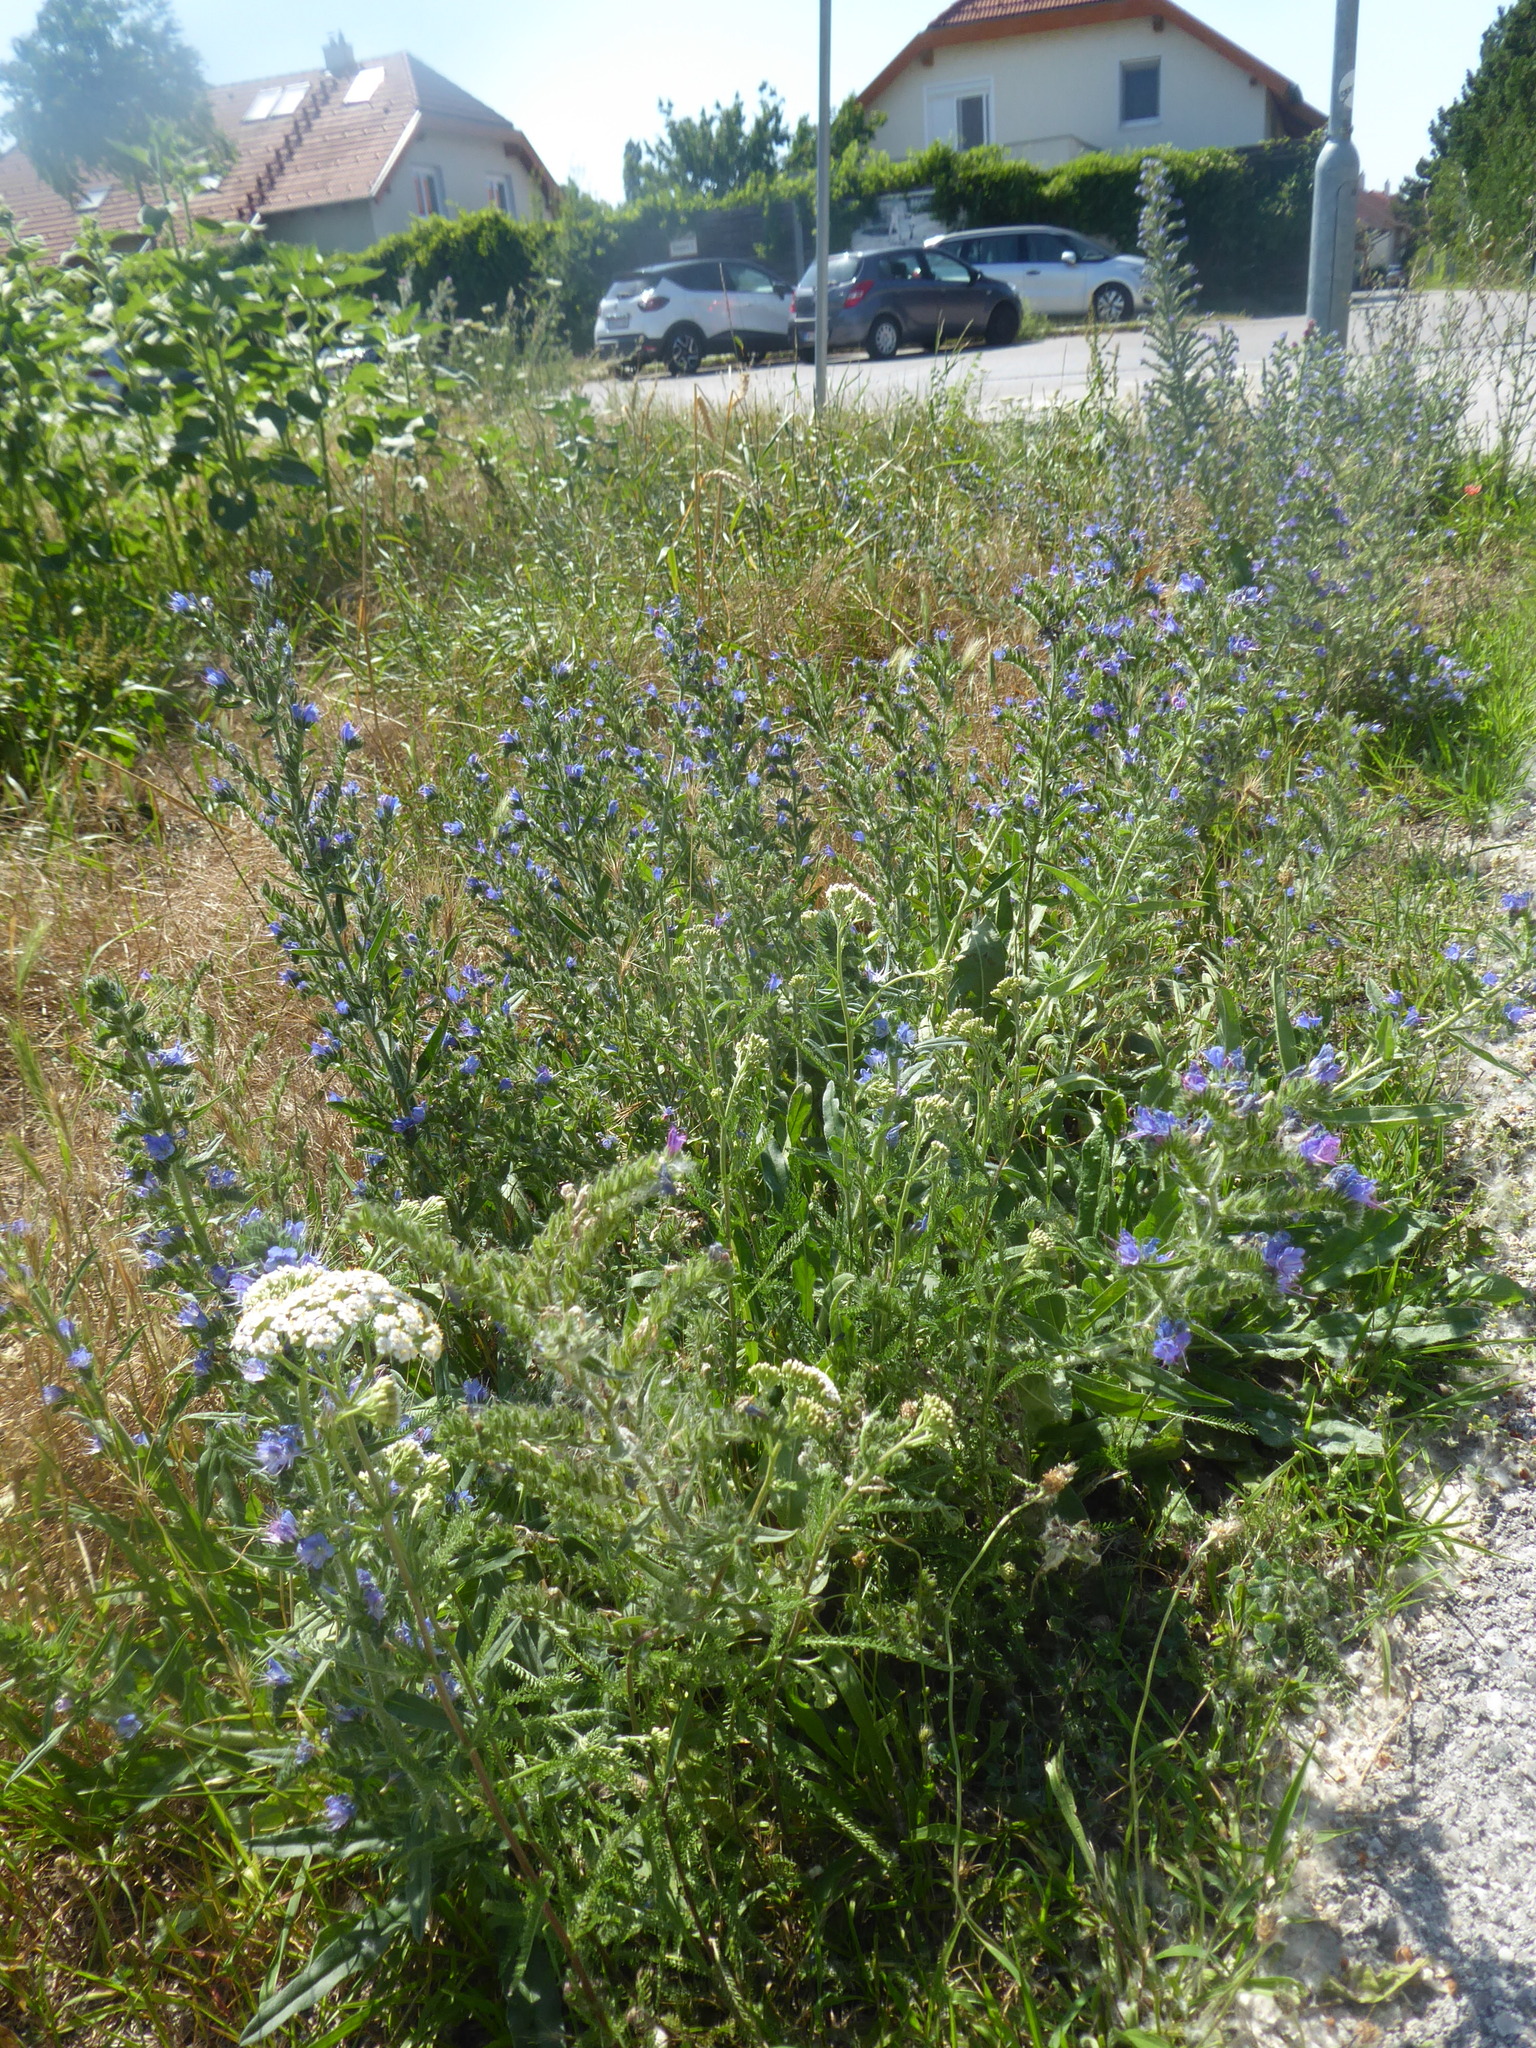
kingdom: Plantae
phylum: Tracheophyta
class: Magnoliopsida
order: Boraginales
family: Boraginaceae
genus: Echium
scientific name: Echium vulgare
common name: Common viper's bugloss
